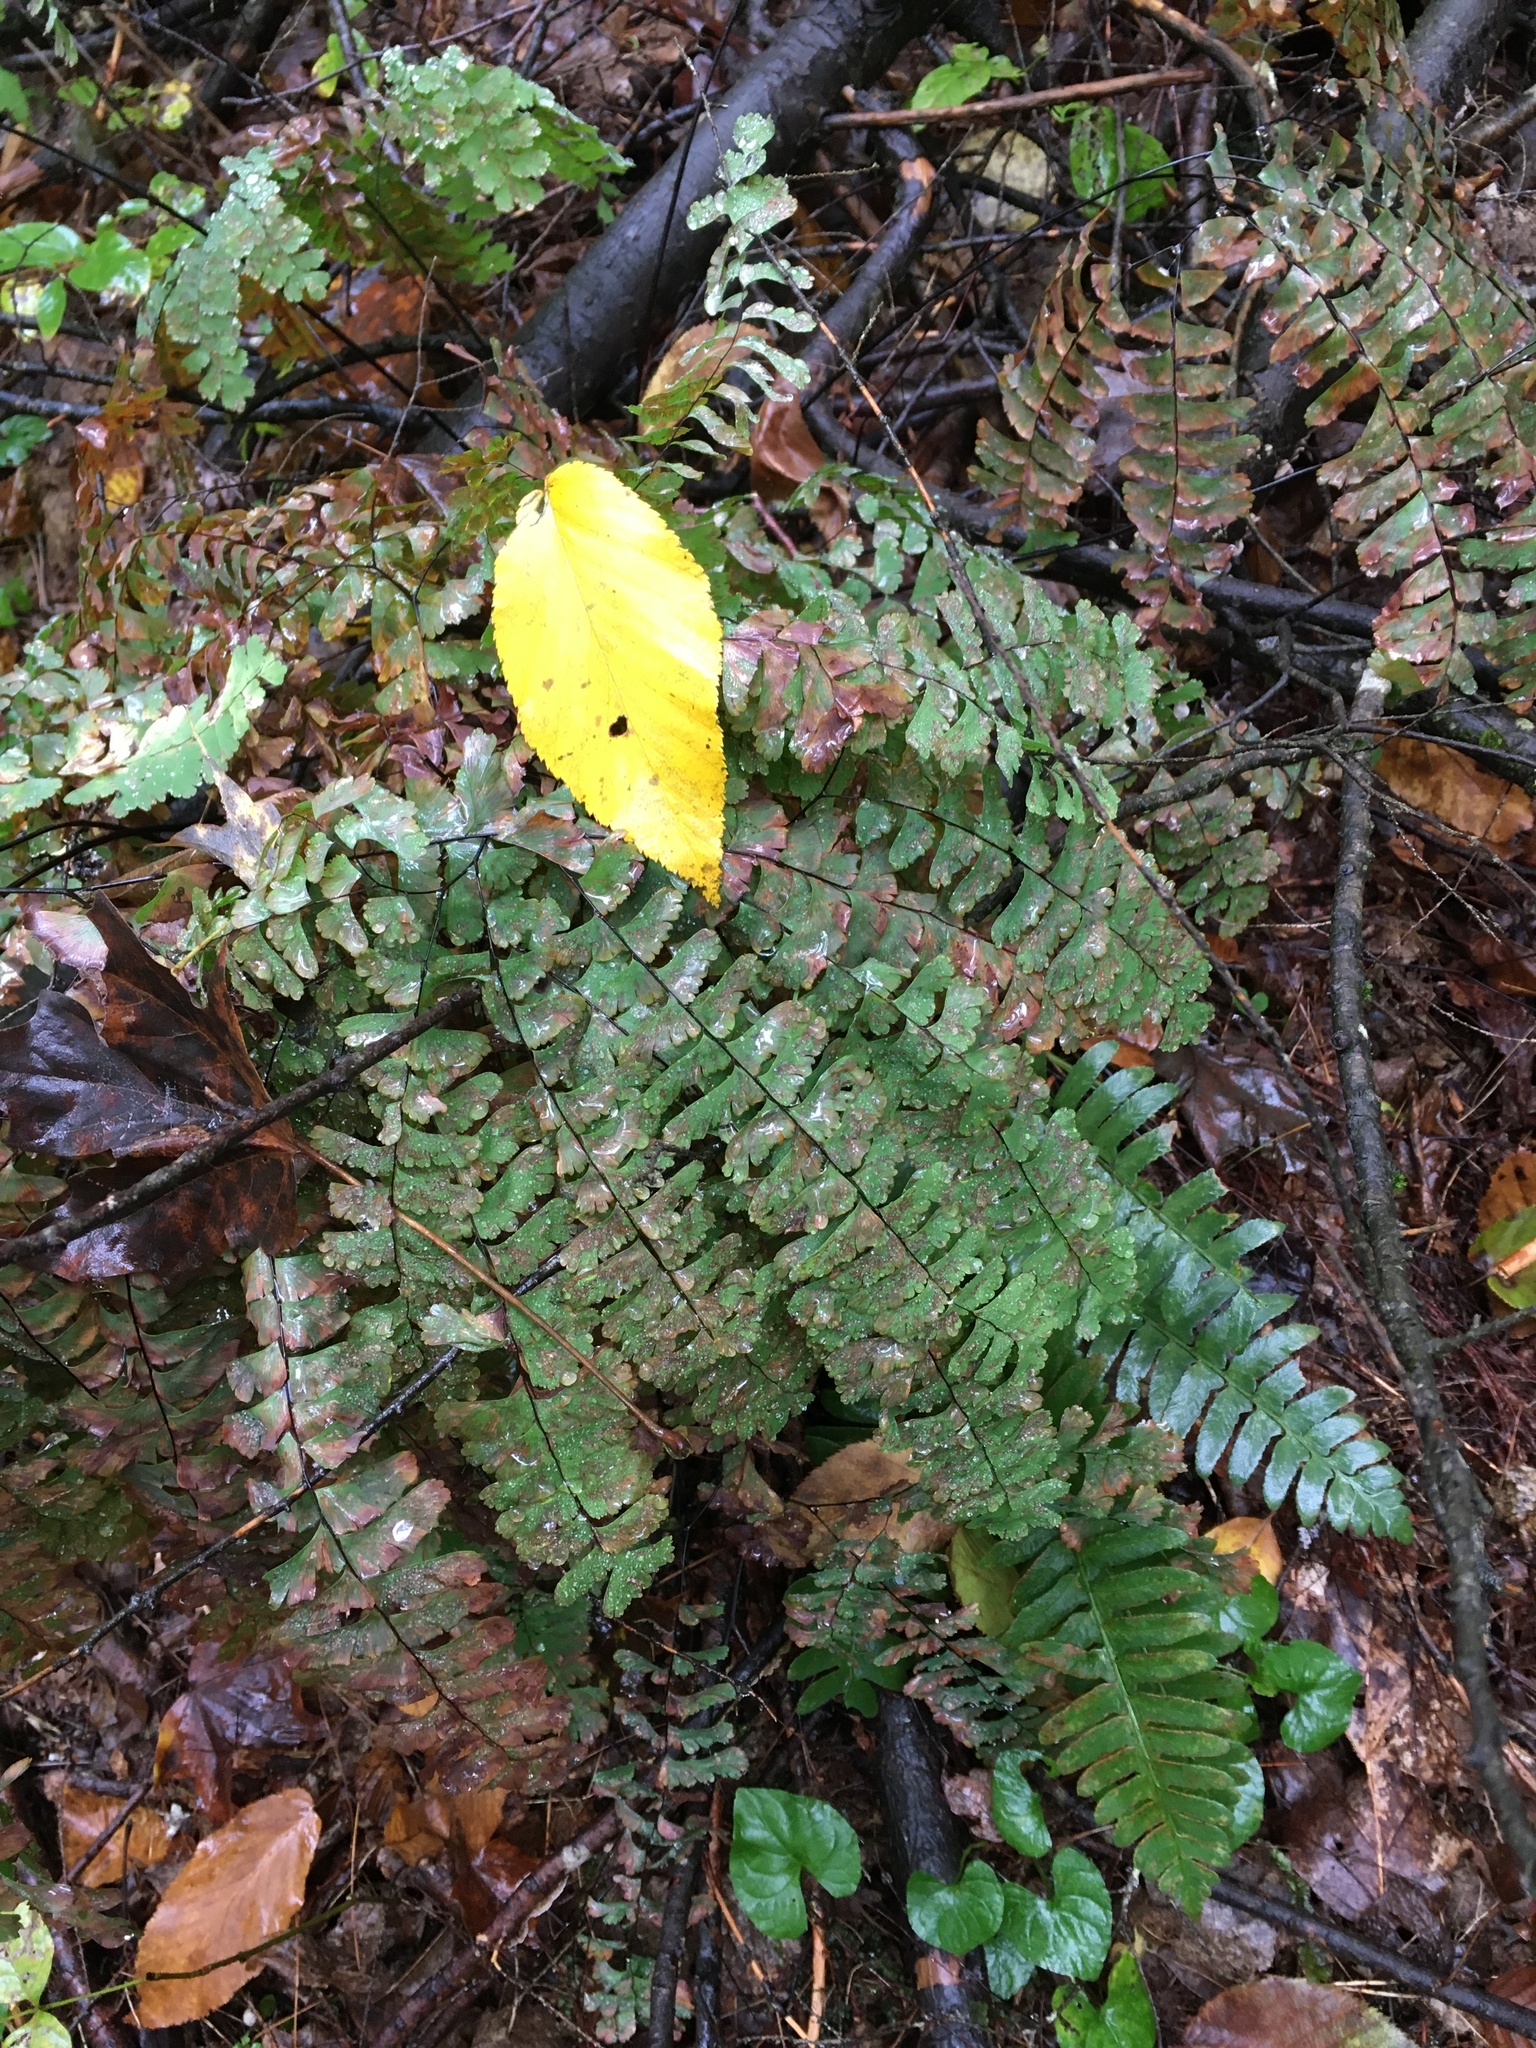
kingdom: Plantae
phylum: Tracheophyta
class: Polypodiopsida
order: Polypodiales
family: Pteridaceae
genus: Adiantum
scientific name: Adiantum pedatum
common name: Five-finger fern
